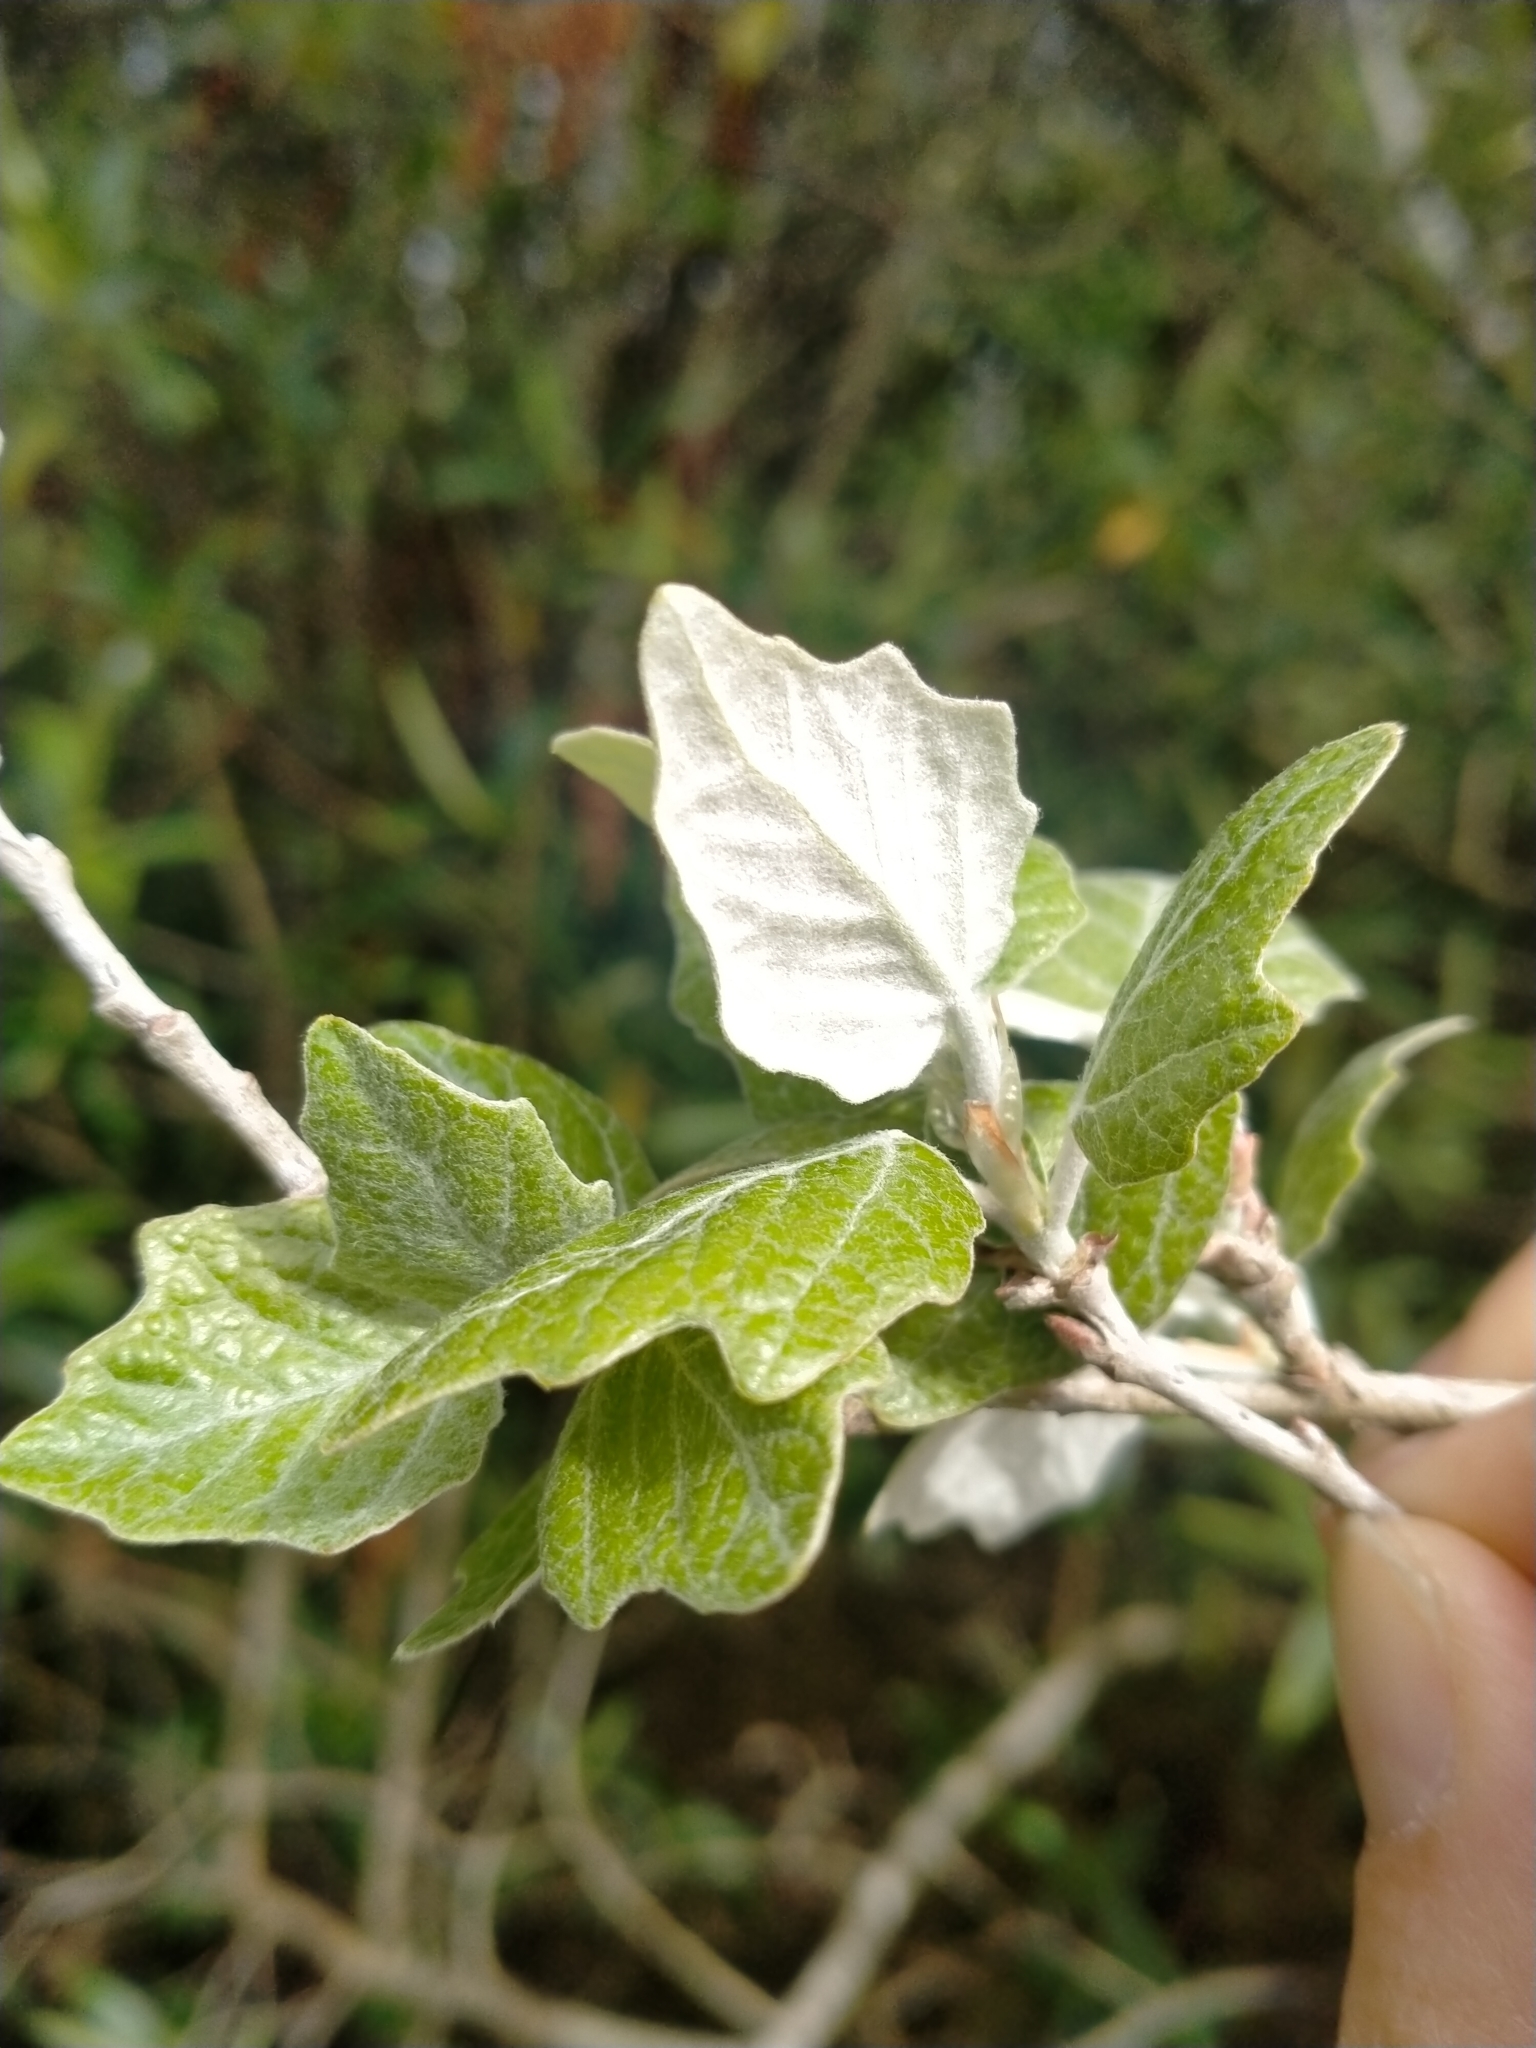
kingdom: Plantae
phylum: Tracheophyta
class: Magnoliopsida
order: Malpighiales
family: Salicaceae
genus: Populus
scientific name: Populus alba
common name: White poplar
